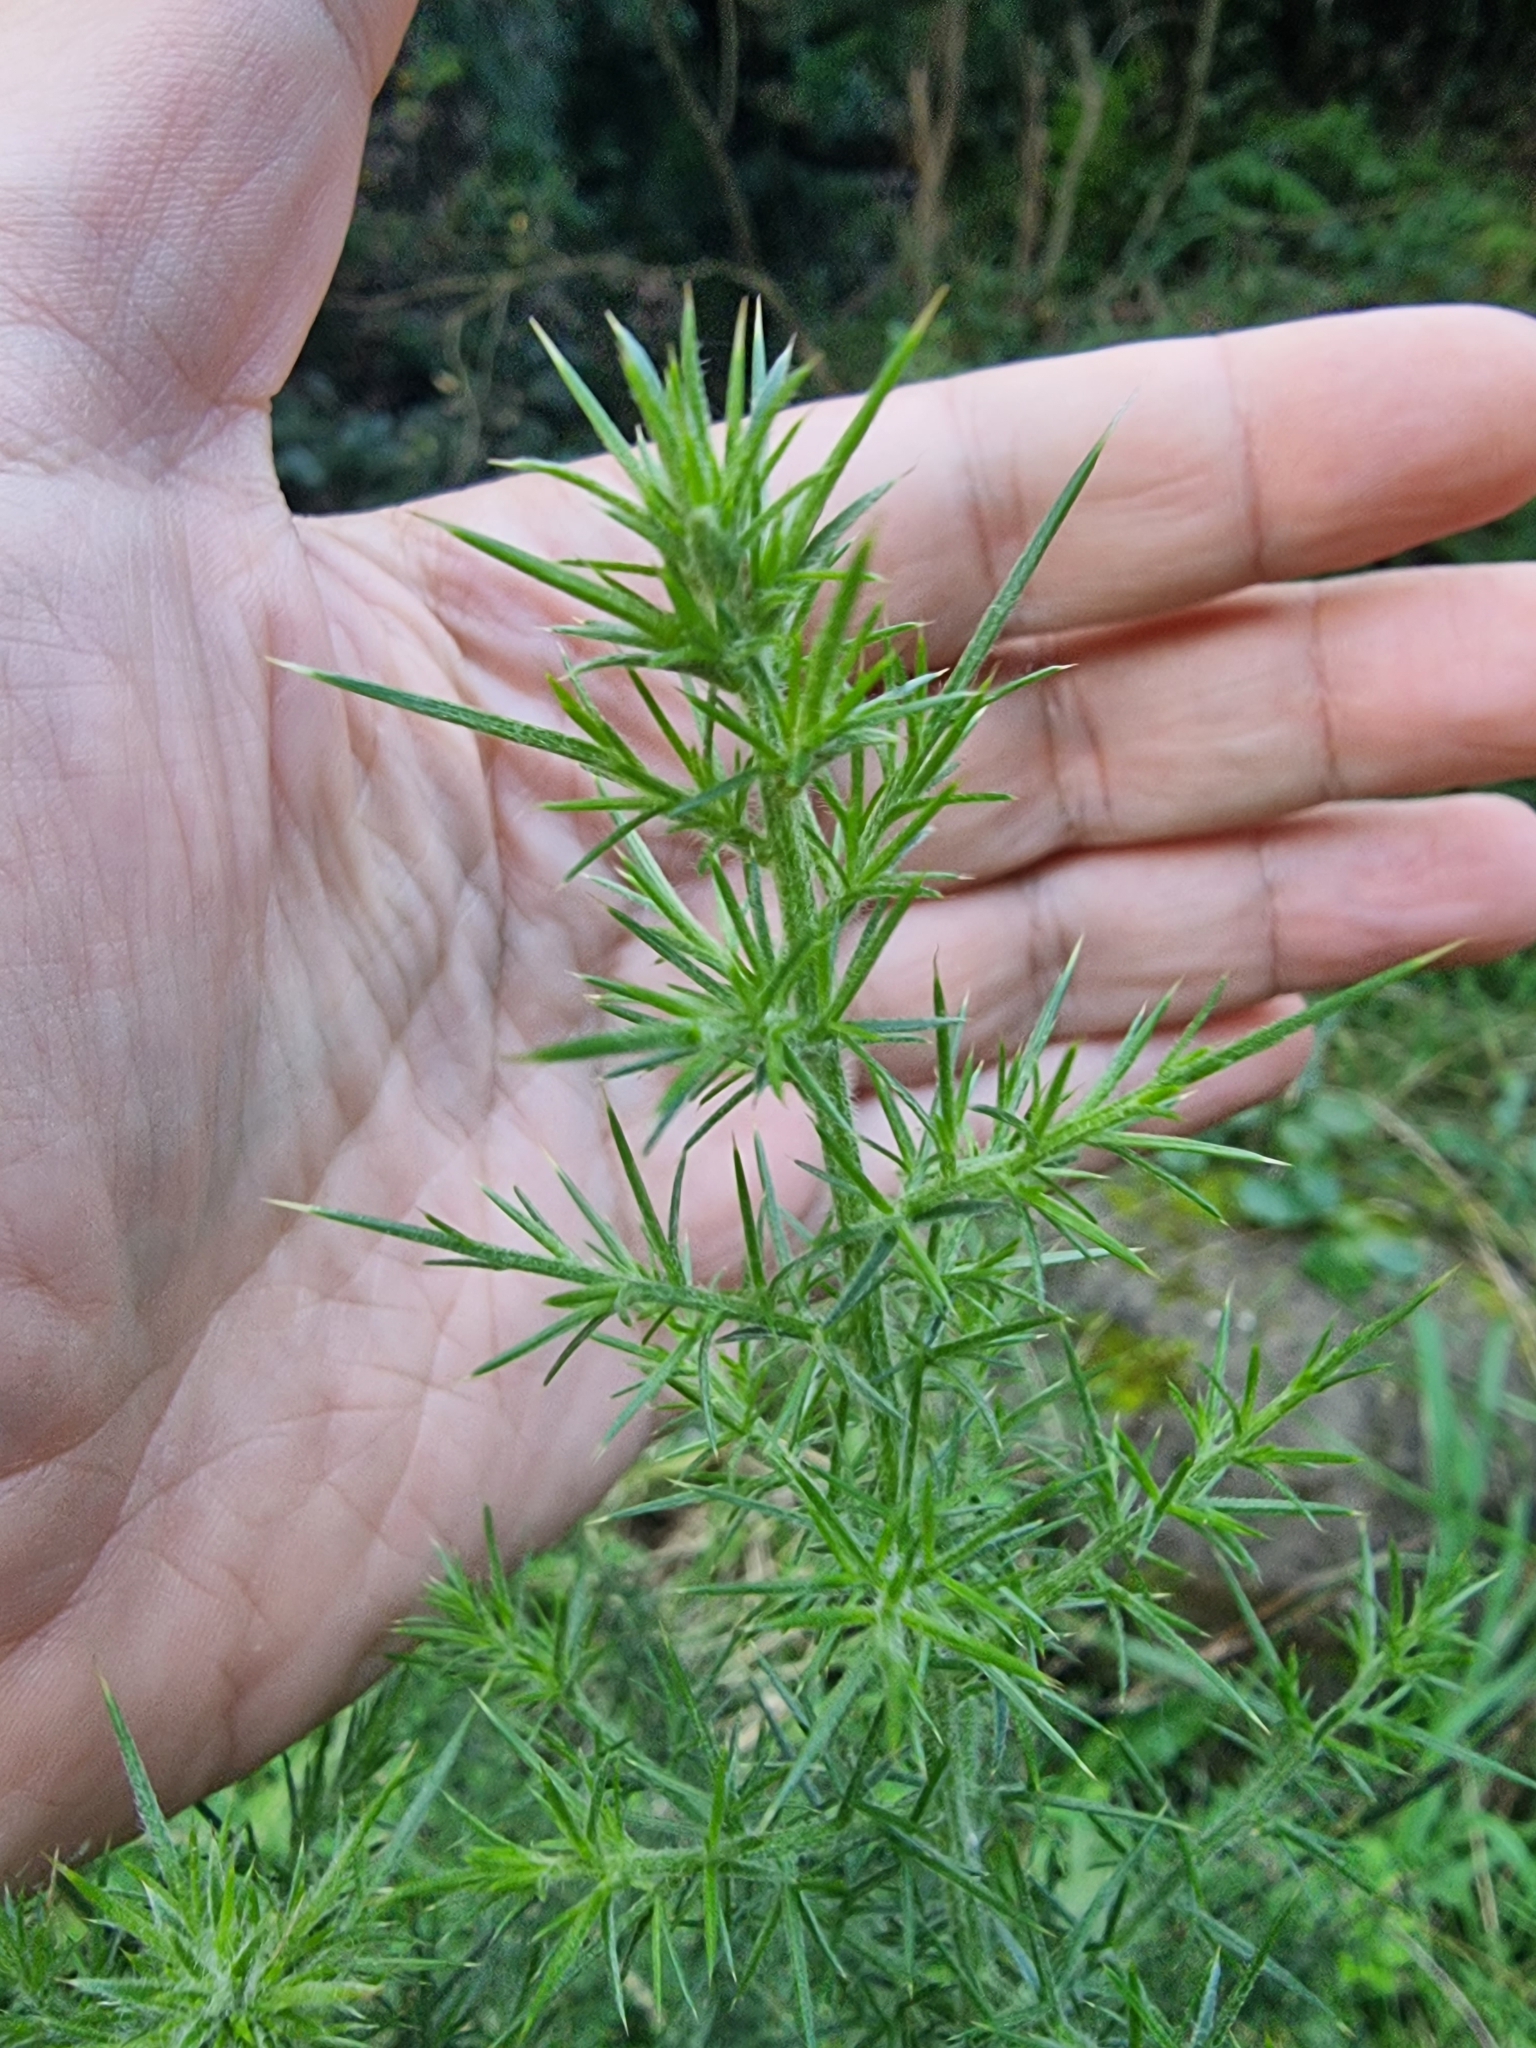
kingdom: Plantae
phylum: Tracheophyta
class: Magnoliopsida
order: Fabales
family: Fabaceae
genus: Ulex
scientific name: Ulex europaeus
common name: Common gorse
